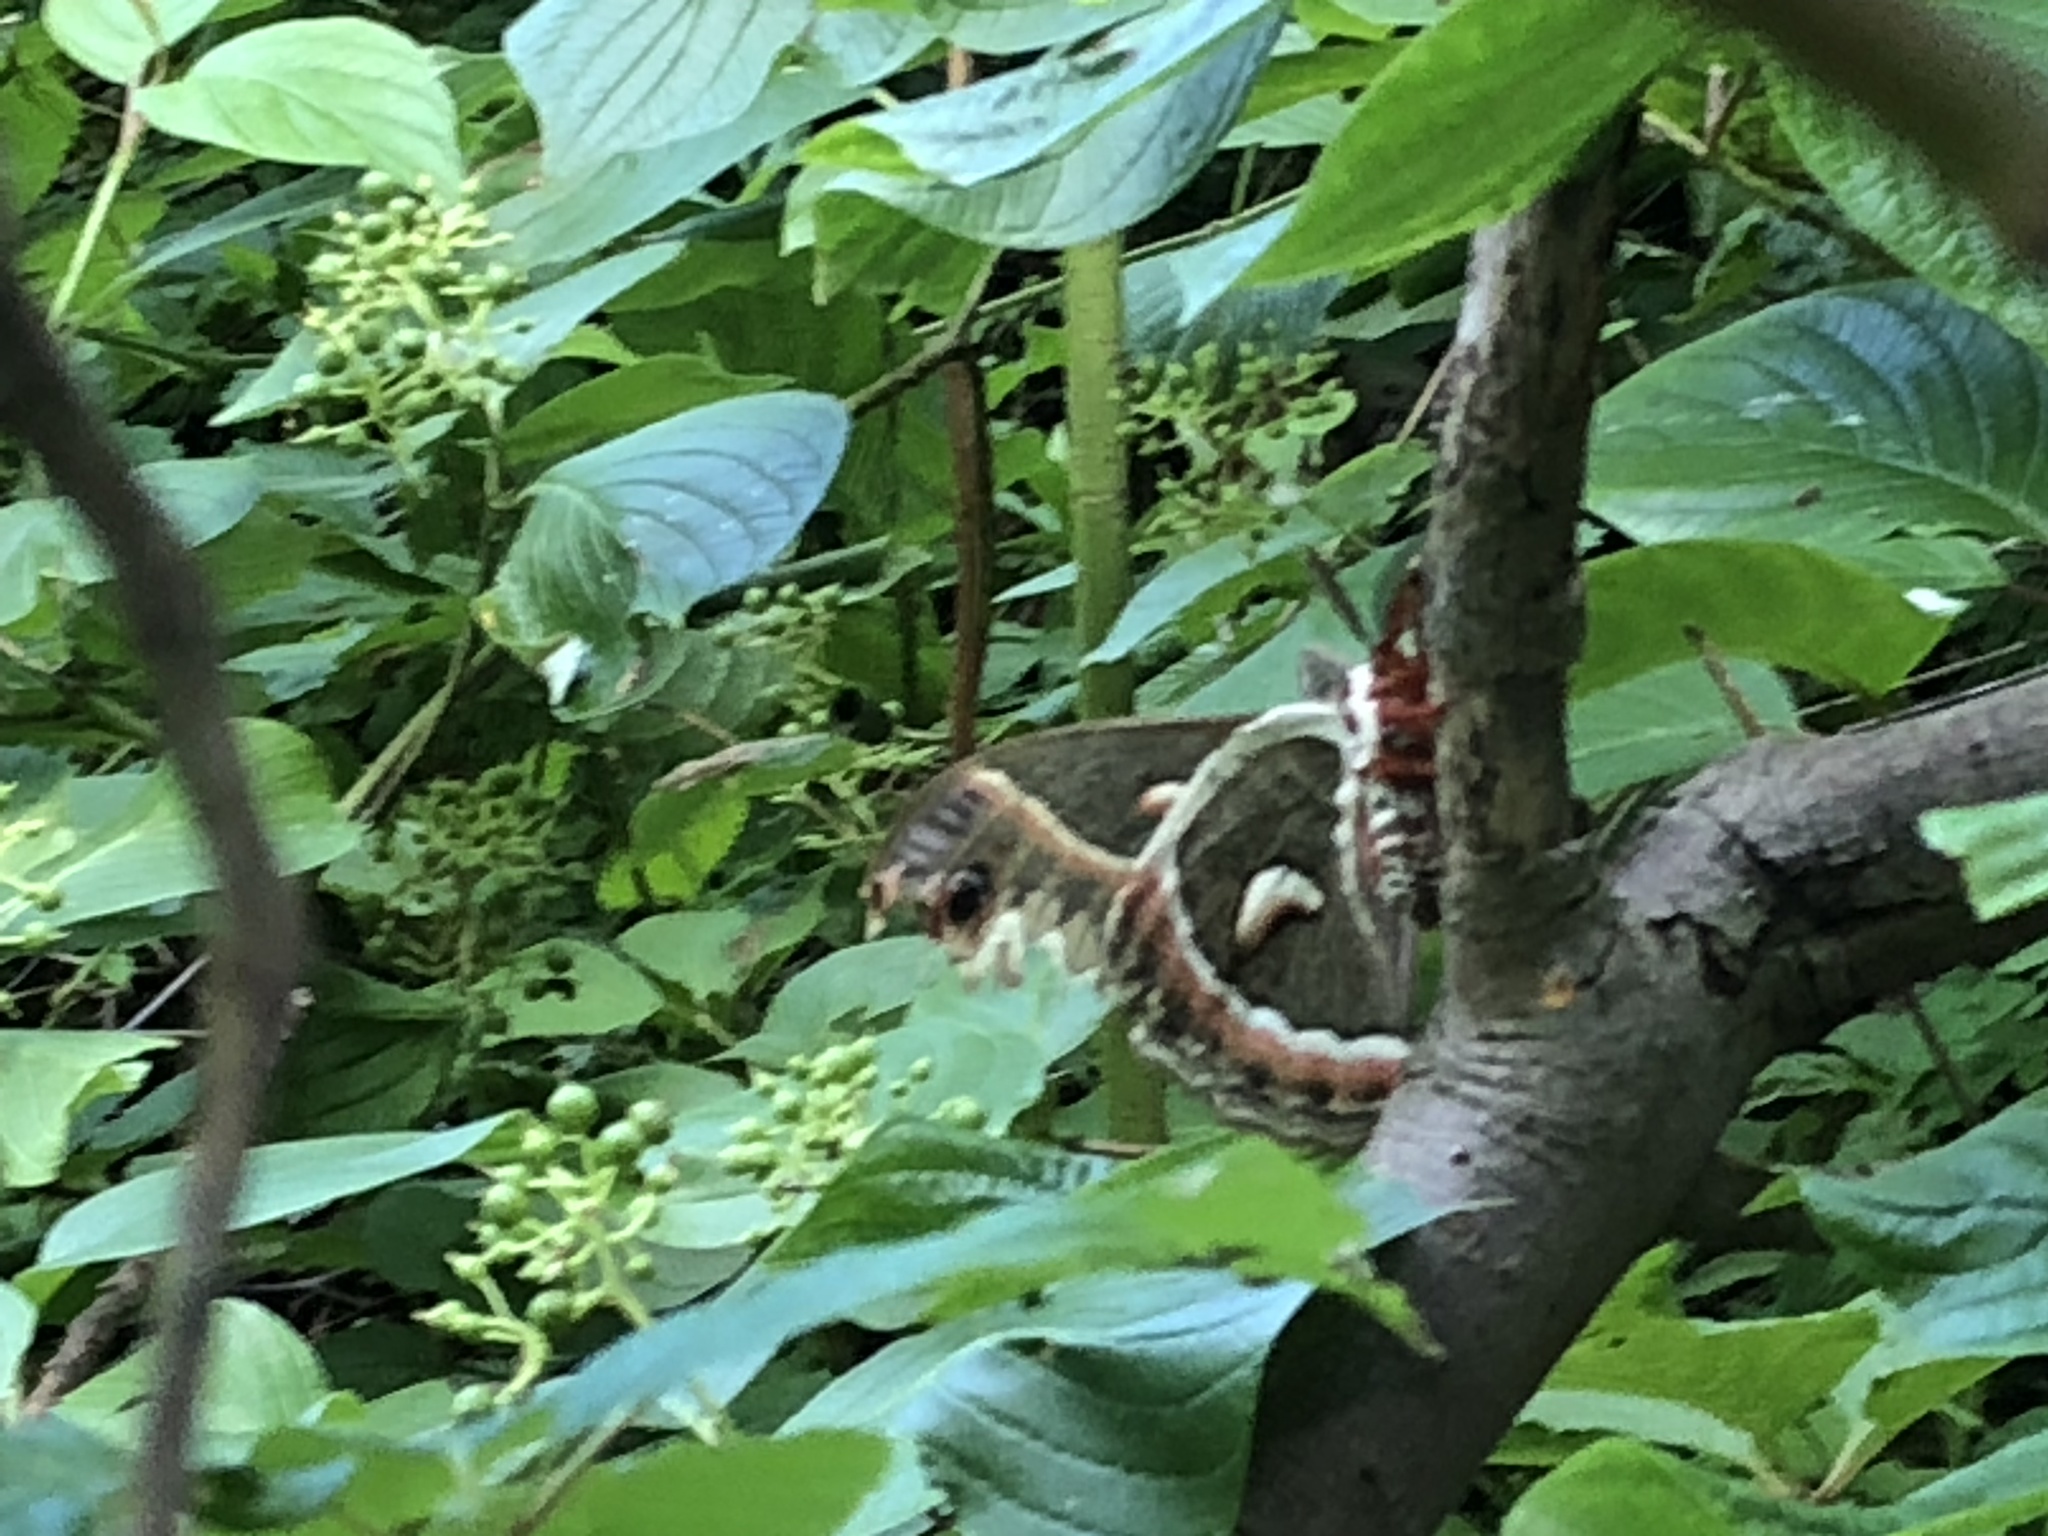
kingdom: Animalia
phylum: Arthropoda
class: Insecta
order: Lepidoptera
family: Saturniidae
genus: Hyalophora
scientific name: Hyalophora cecropia
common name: Cecropia silkmoth
